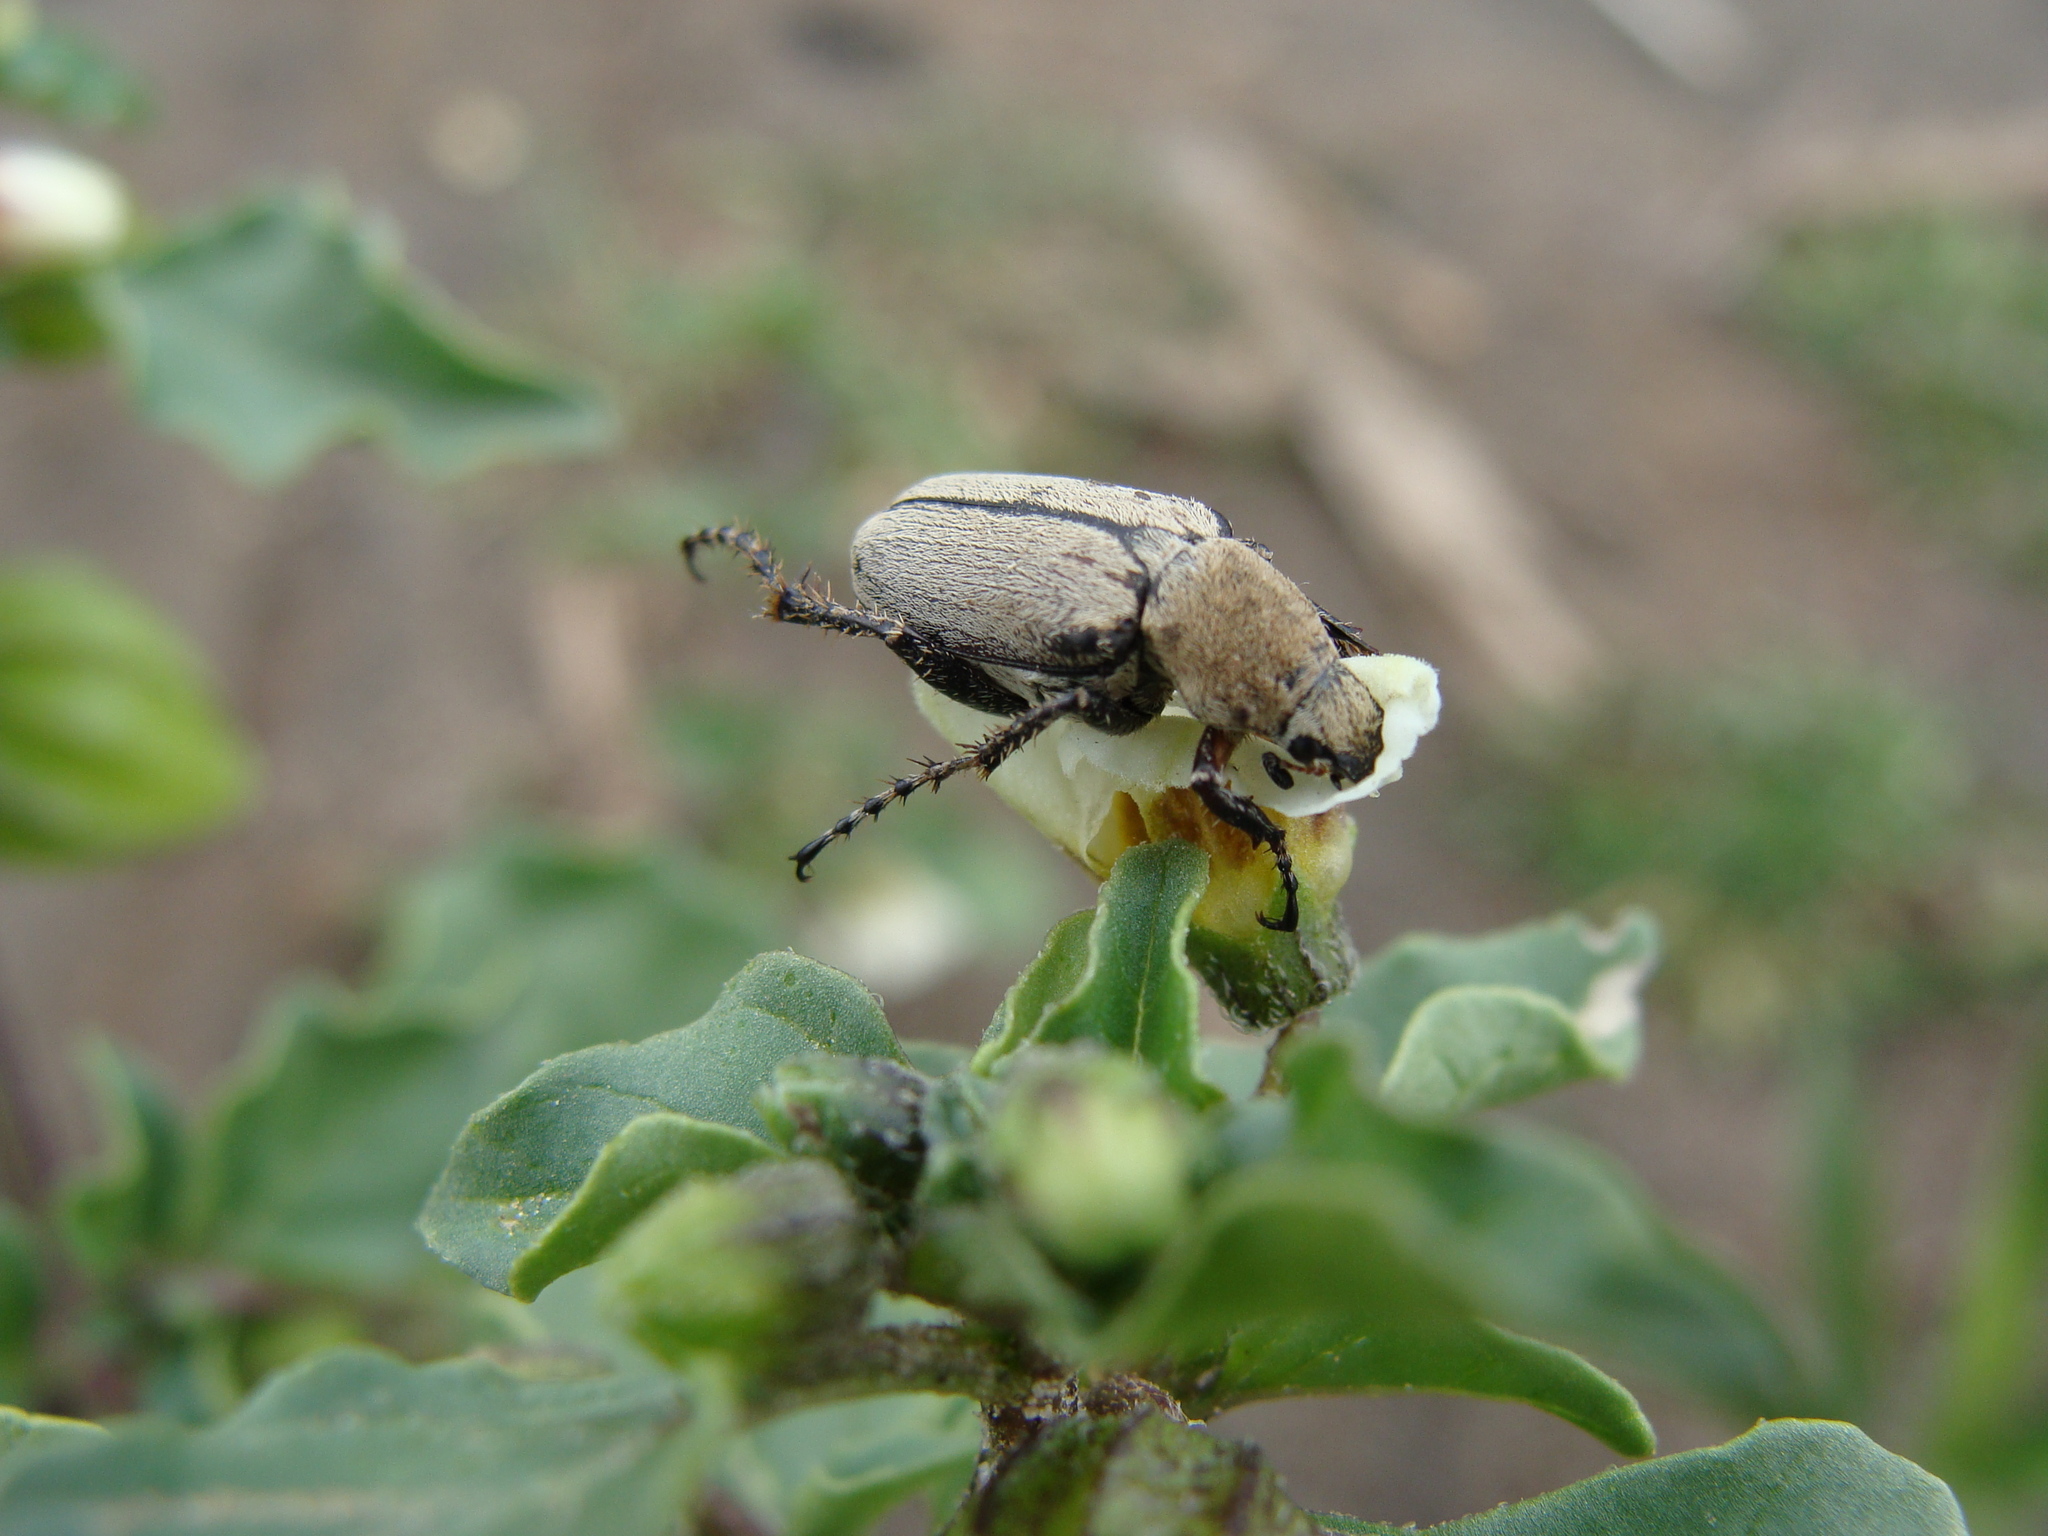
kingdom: Animalia
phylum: Arthropoda
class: Insecta
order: Coleoptera
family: Scarabaeidae
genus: Macrodactylus
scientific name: Macrodactylus nigripes
